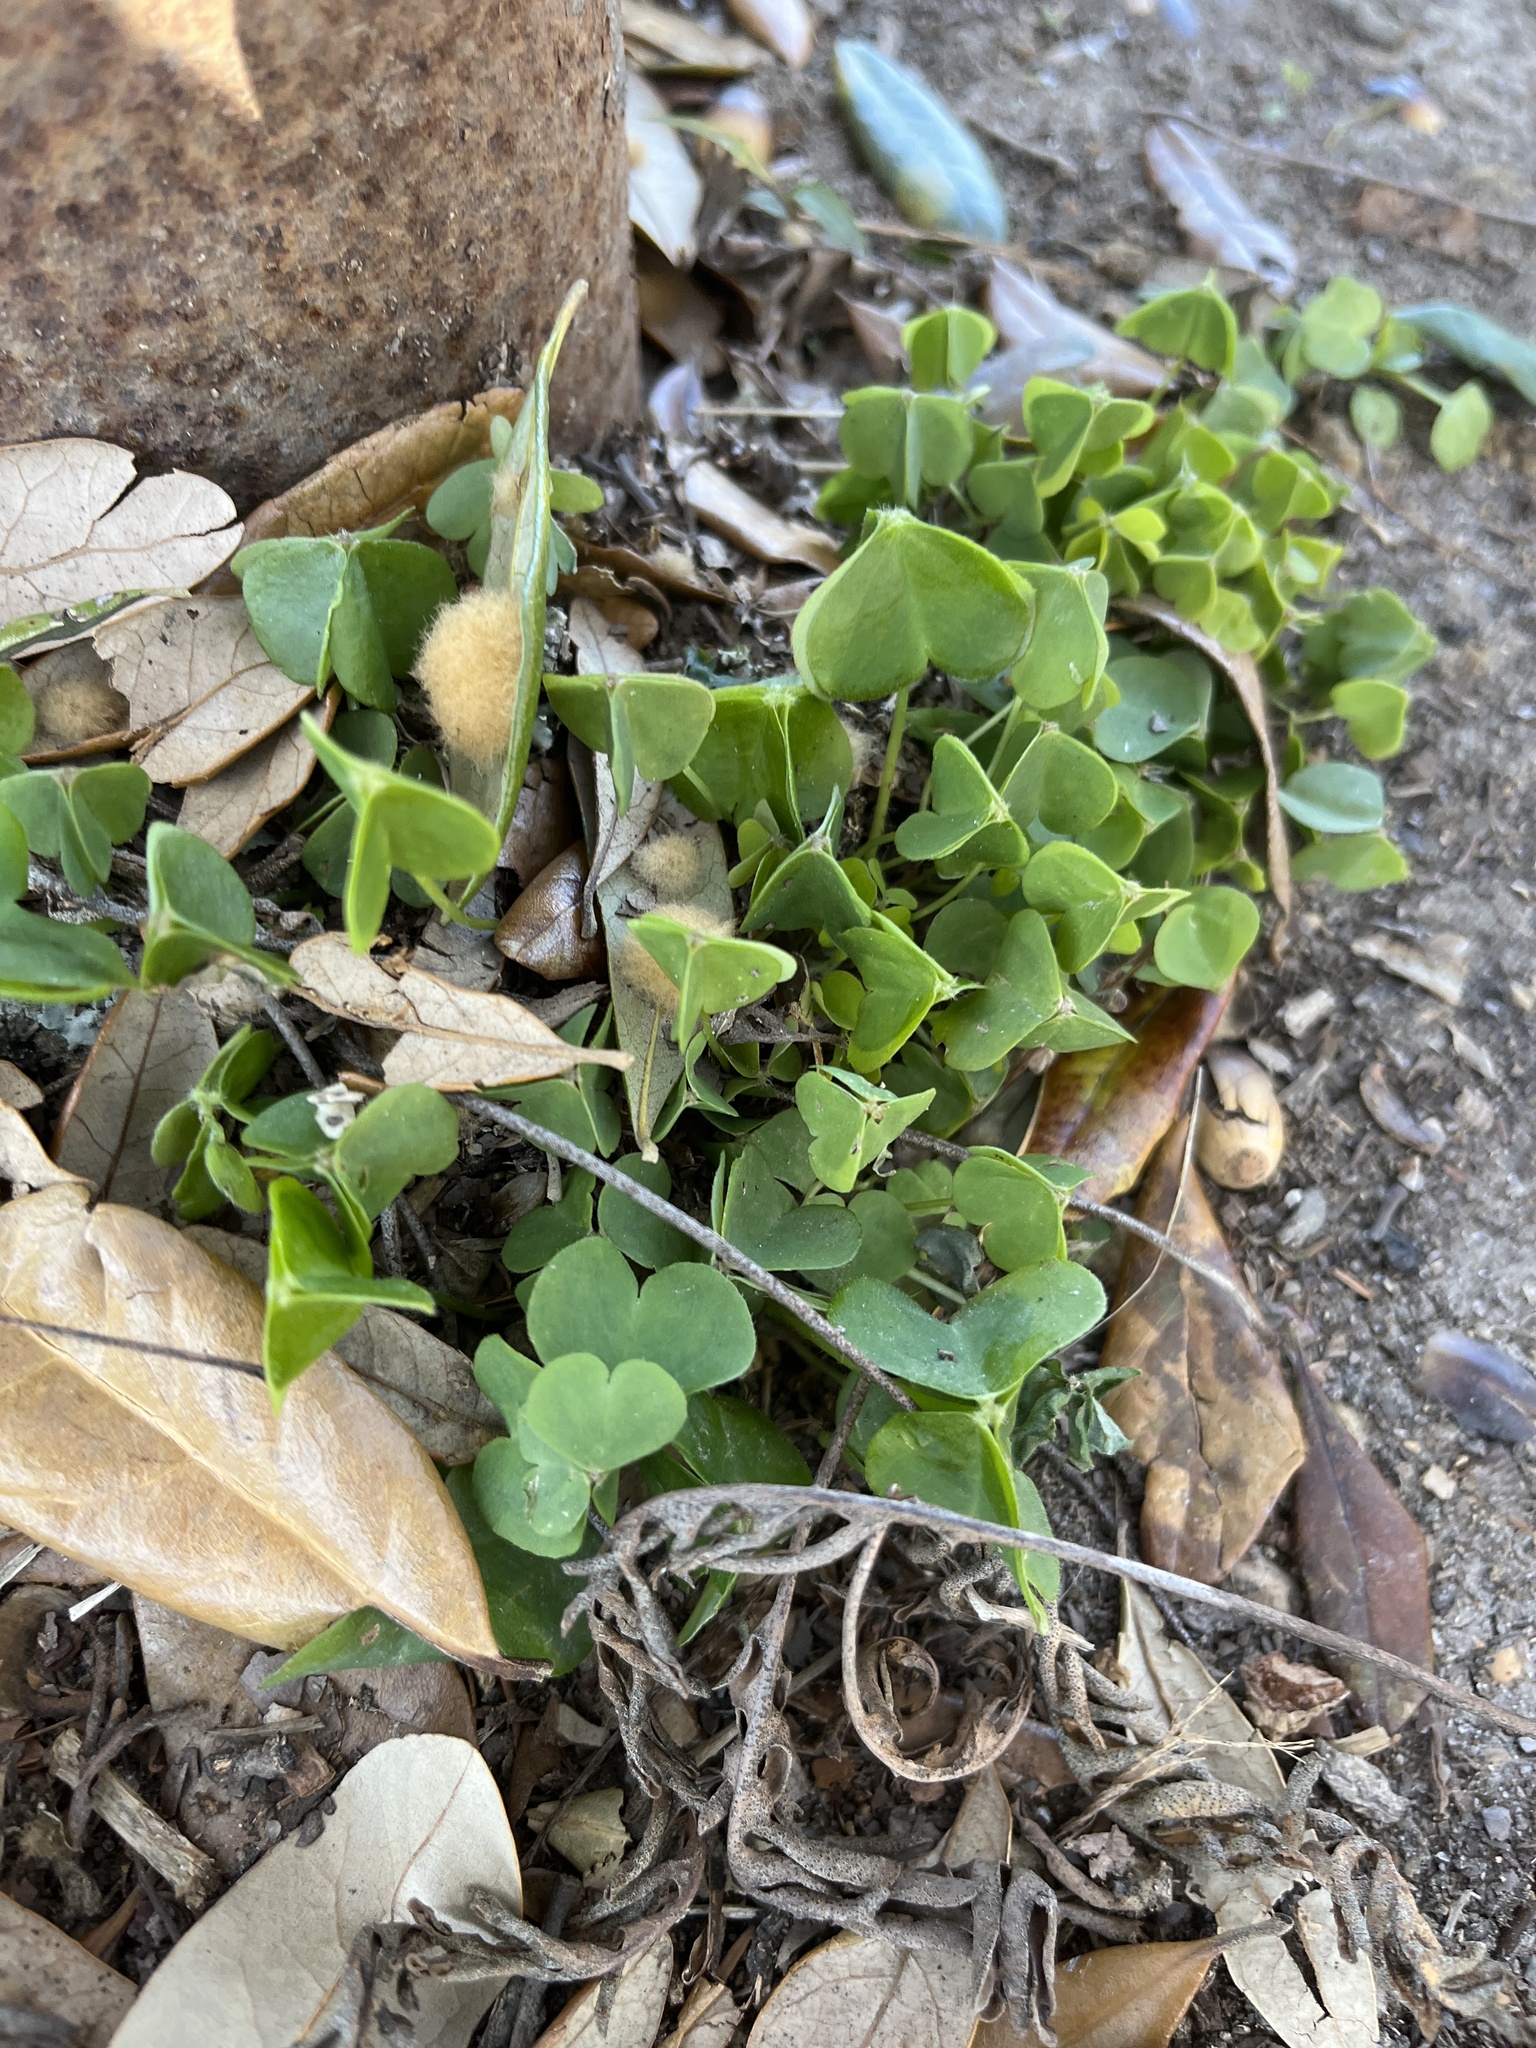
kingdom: Plantae
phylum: Tracheophyta
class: Magnoliopsida
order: Oxalidales
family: Oxalidaceae
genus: Oxalis
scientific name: Oxalis
